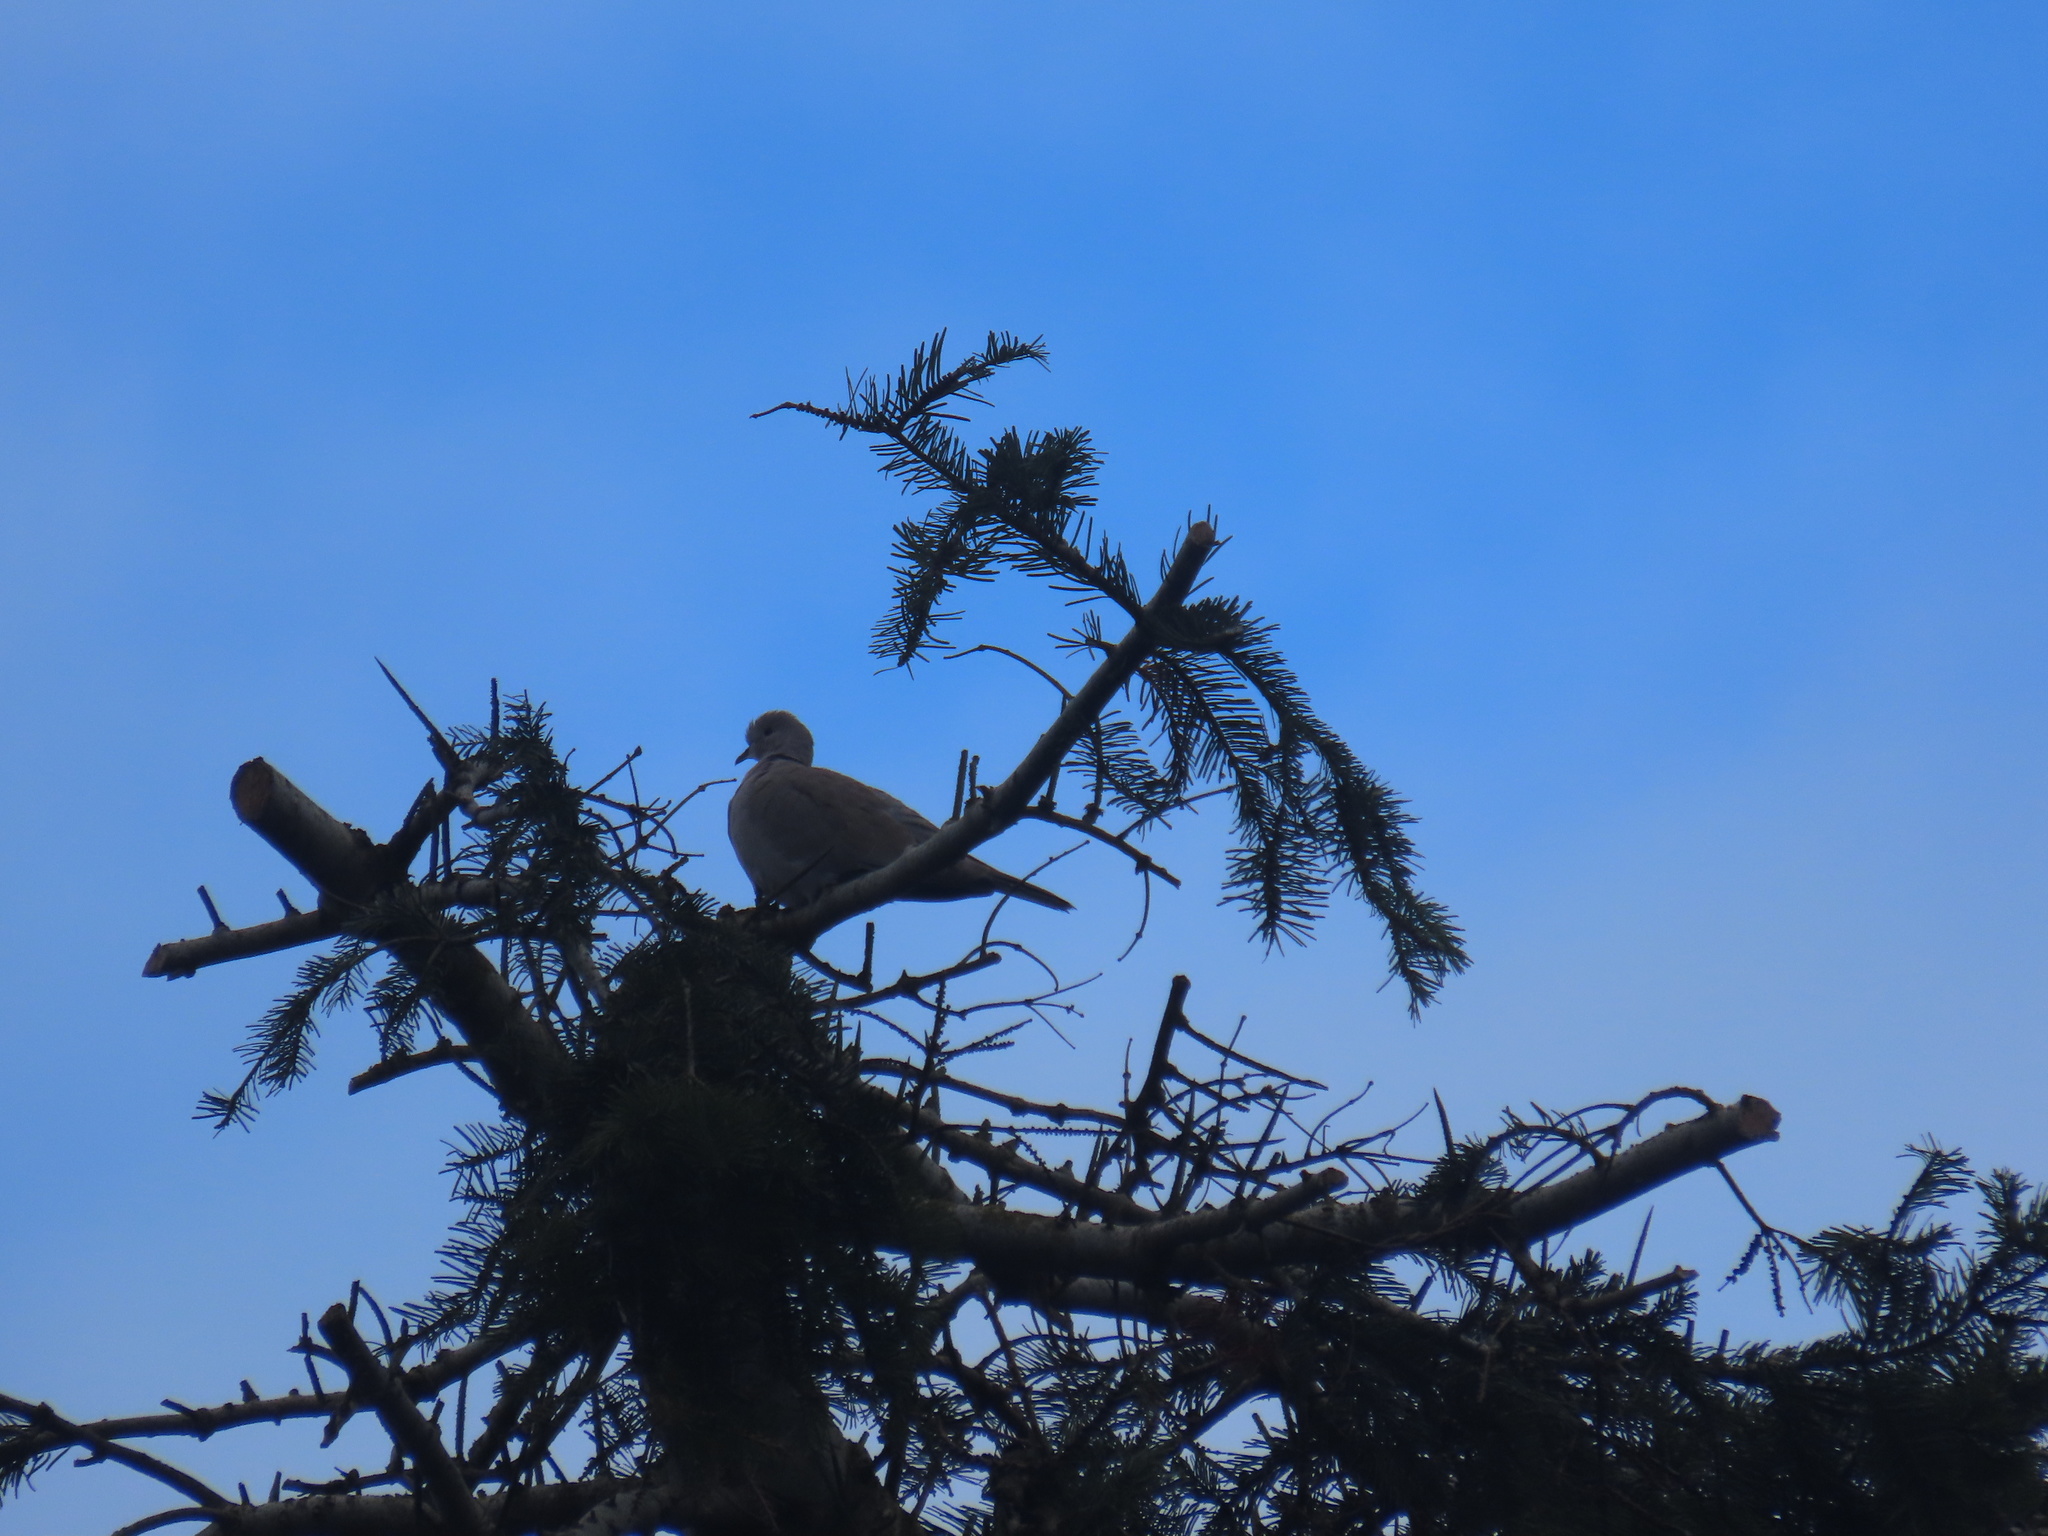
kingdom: Animalia
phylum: Chordata
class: Aves
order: Columbiformes
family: Columbidae
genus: Streptopelia
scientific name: Streptopelia decaocto
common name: Eurasian collared dove
